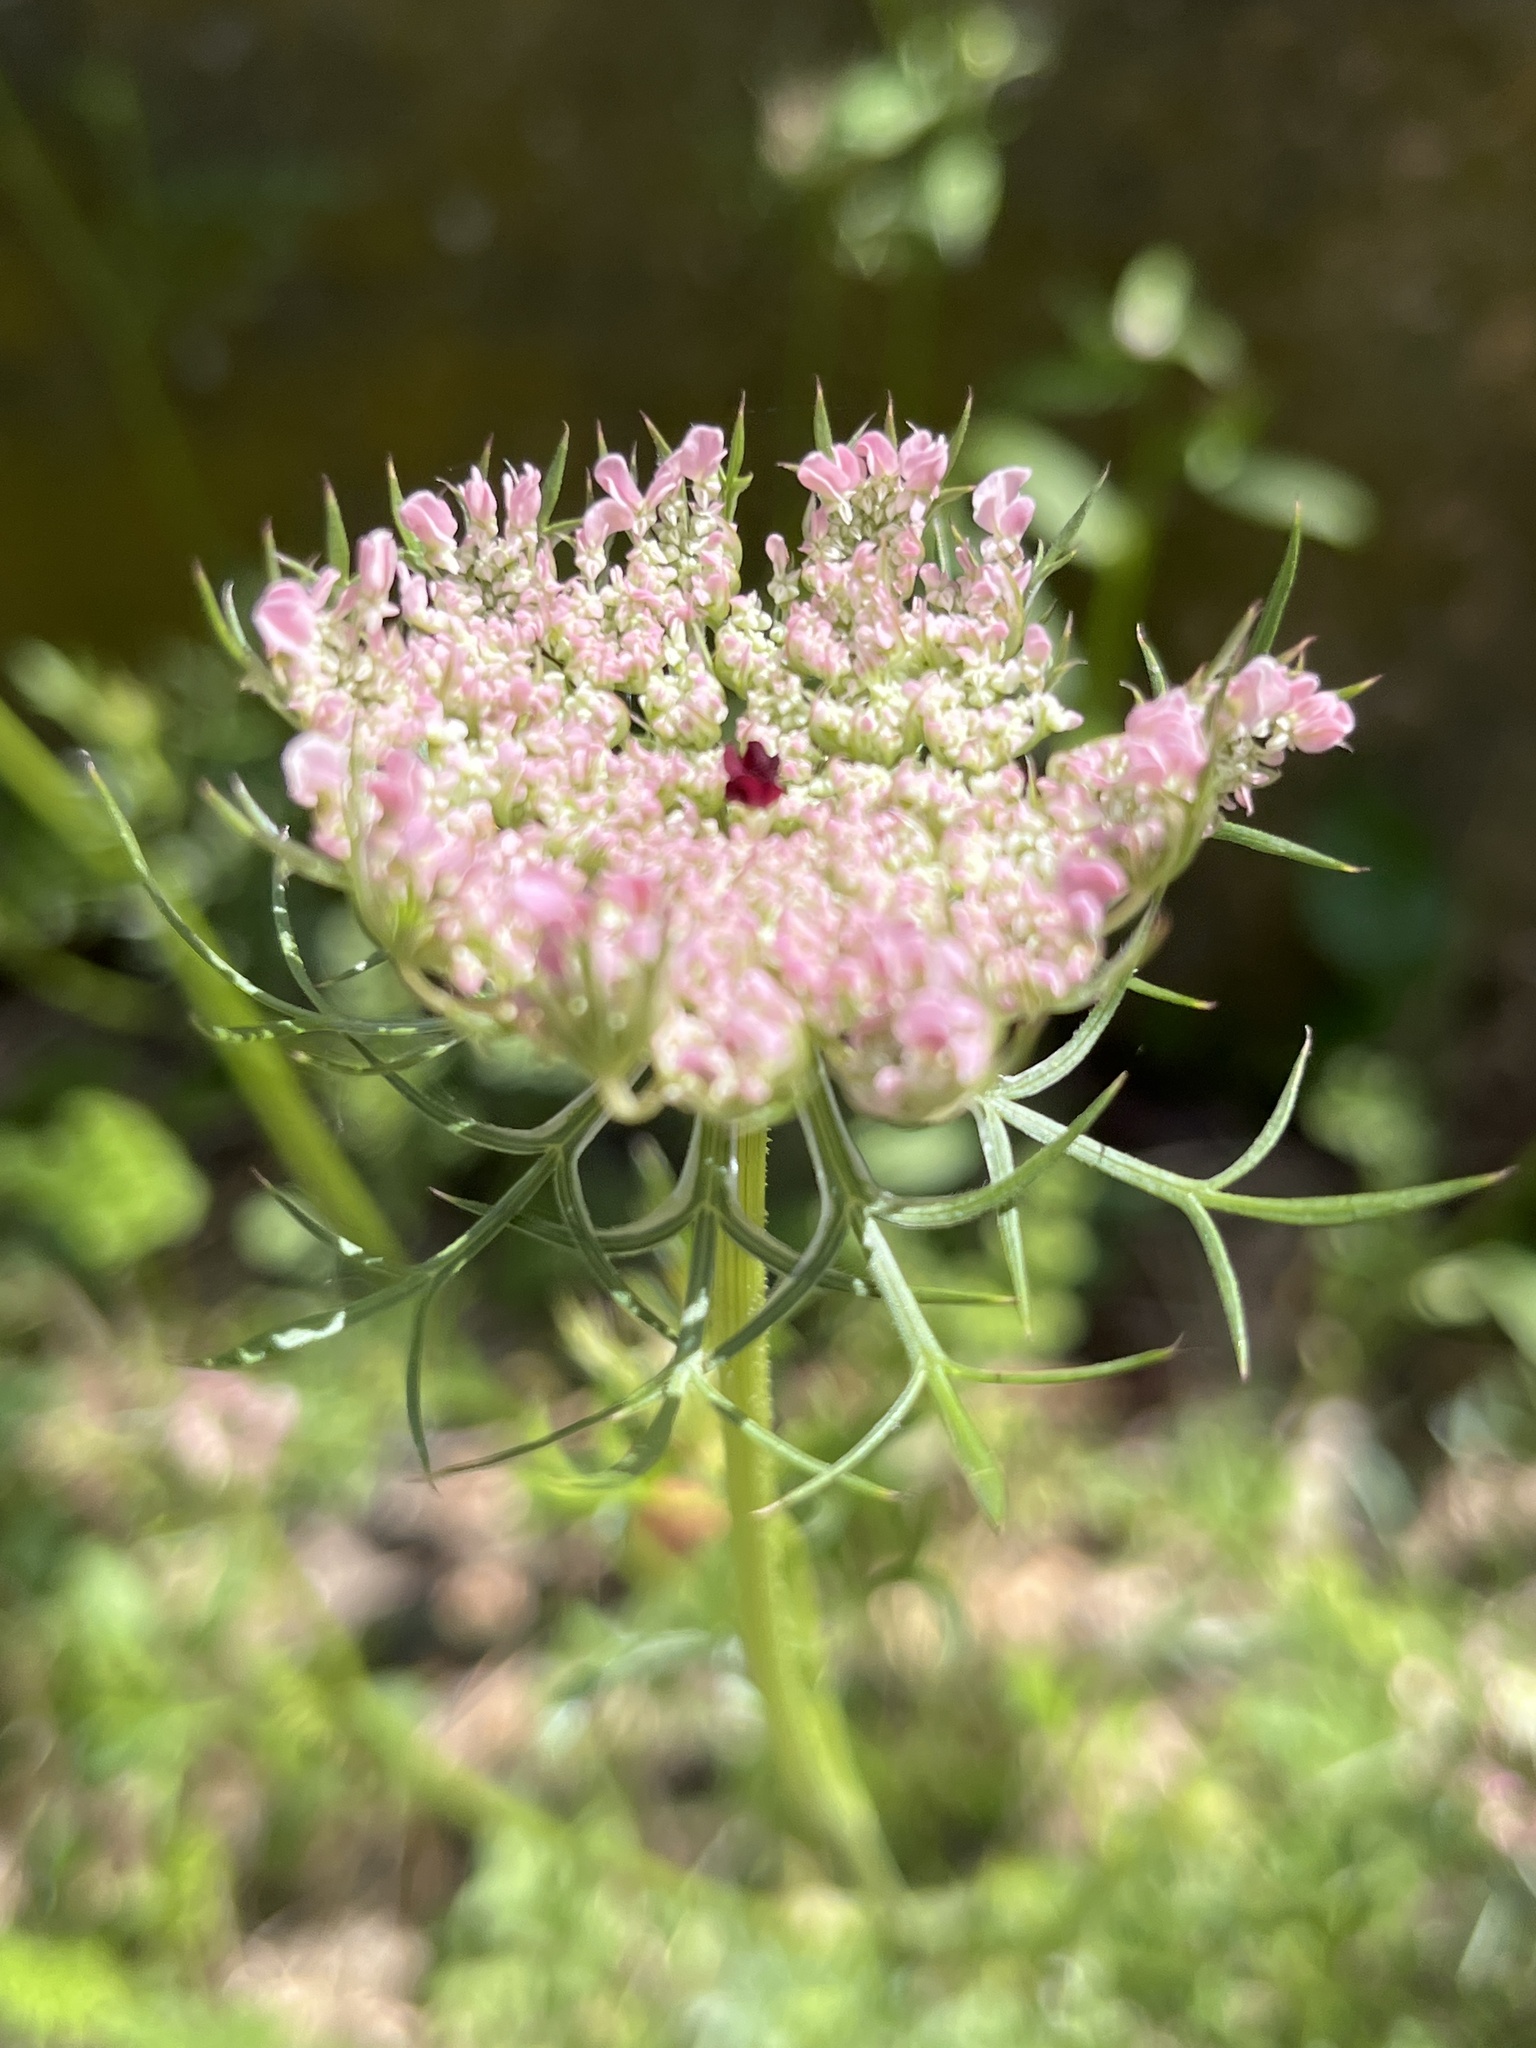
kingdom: Plantae
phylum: Tracheophyta
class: Magnoliopsida
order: Apiales
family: Apiaceae
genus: Daucus
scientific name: Daucus carota
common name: Wild carrot
